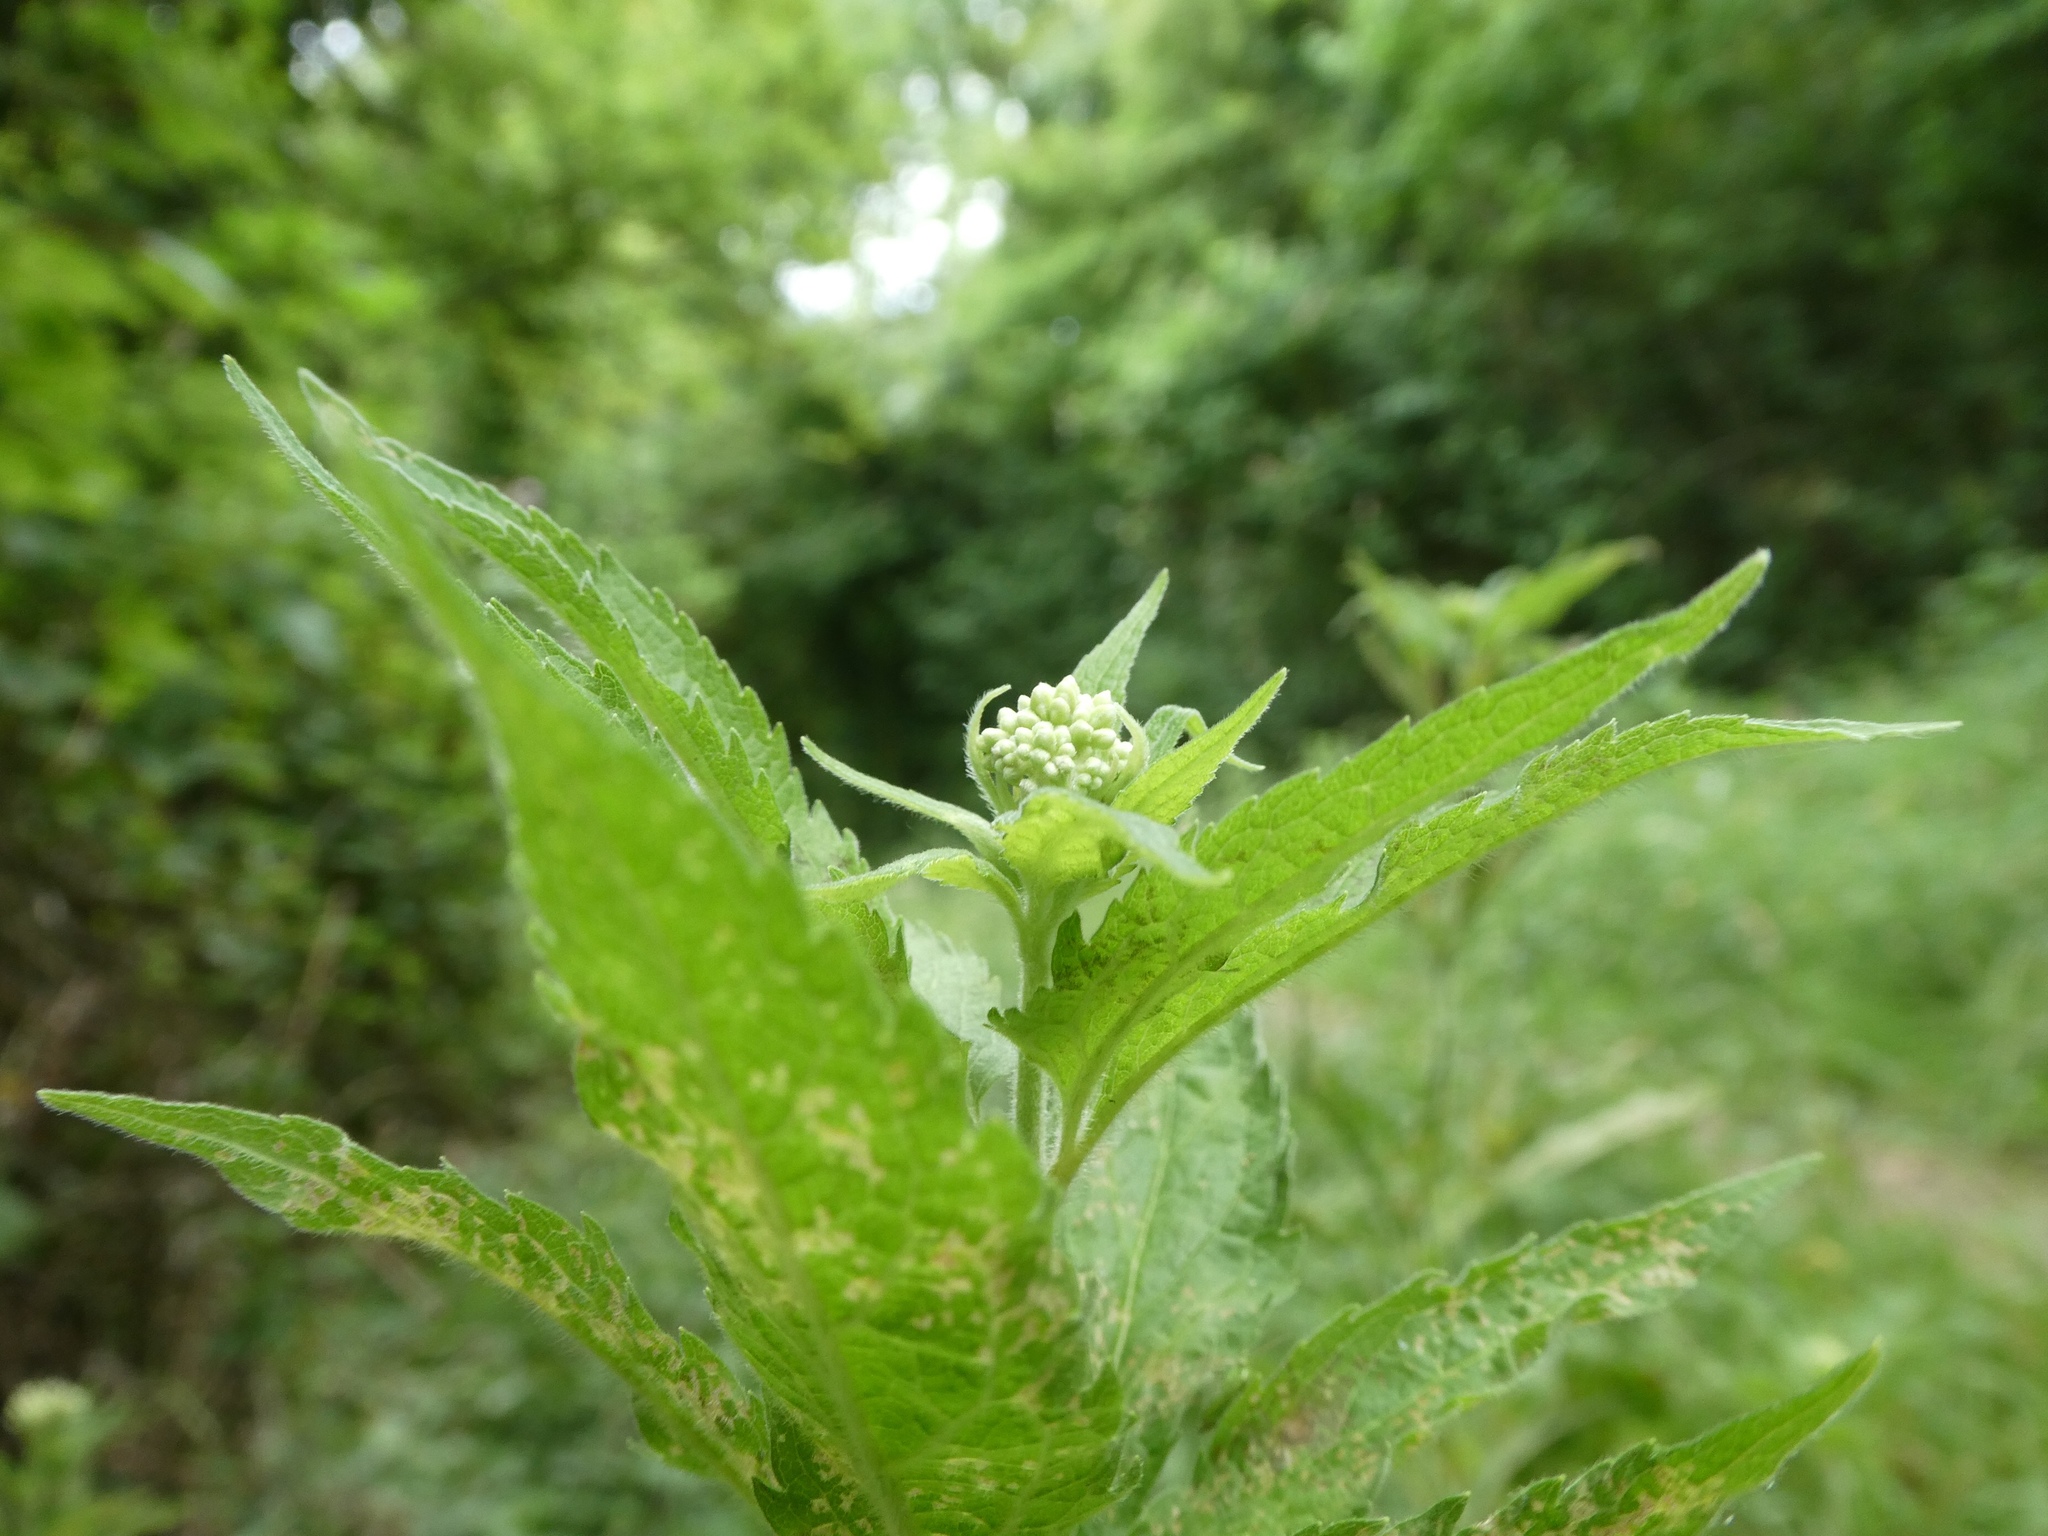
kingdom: Plantae
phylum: Tracheophyta
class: Magnoliopsida
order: Asterales
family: Asteraceae
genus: Eupatorium
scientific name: Eupatorium cannabinum
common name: Hemp-agrimony
